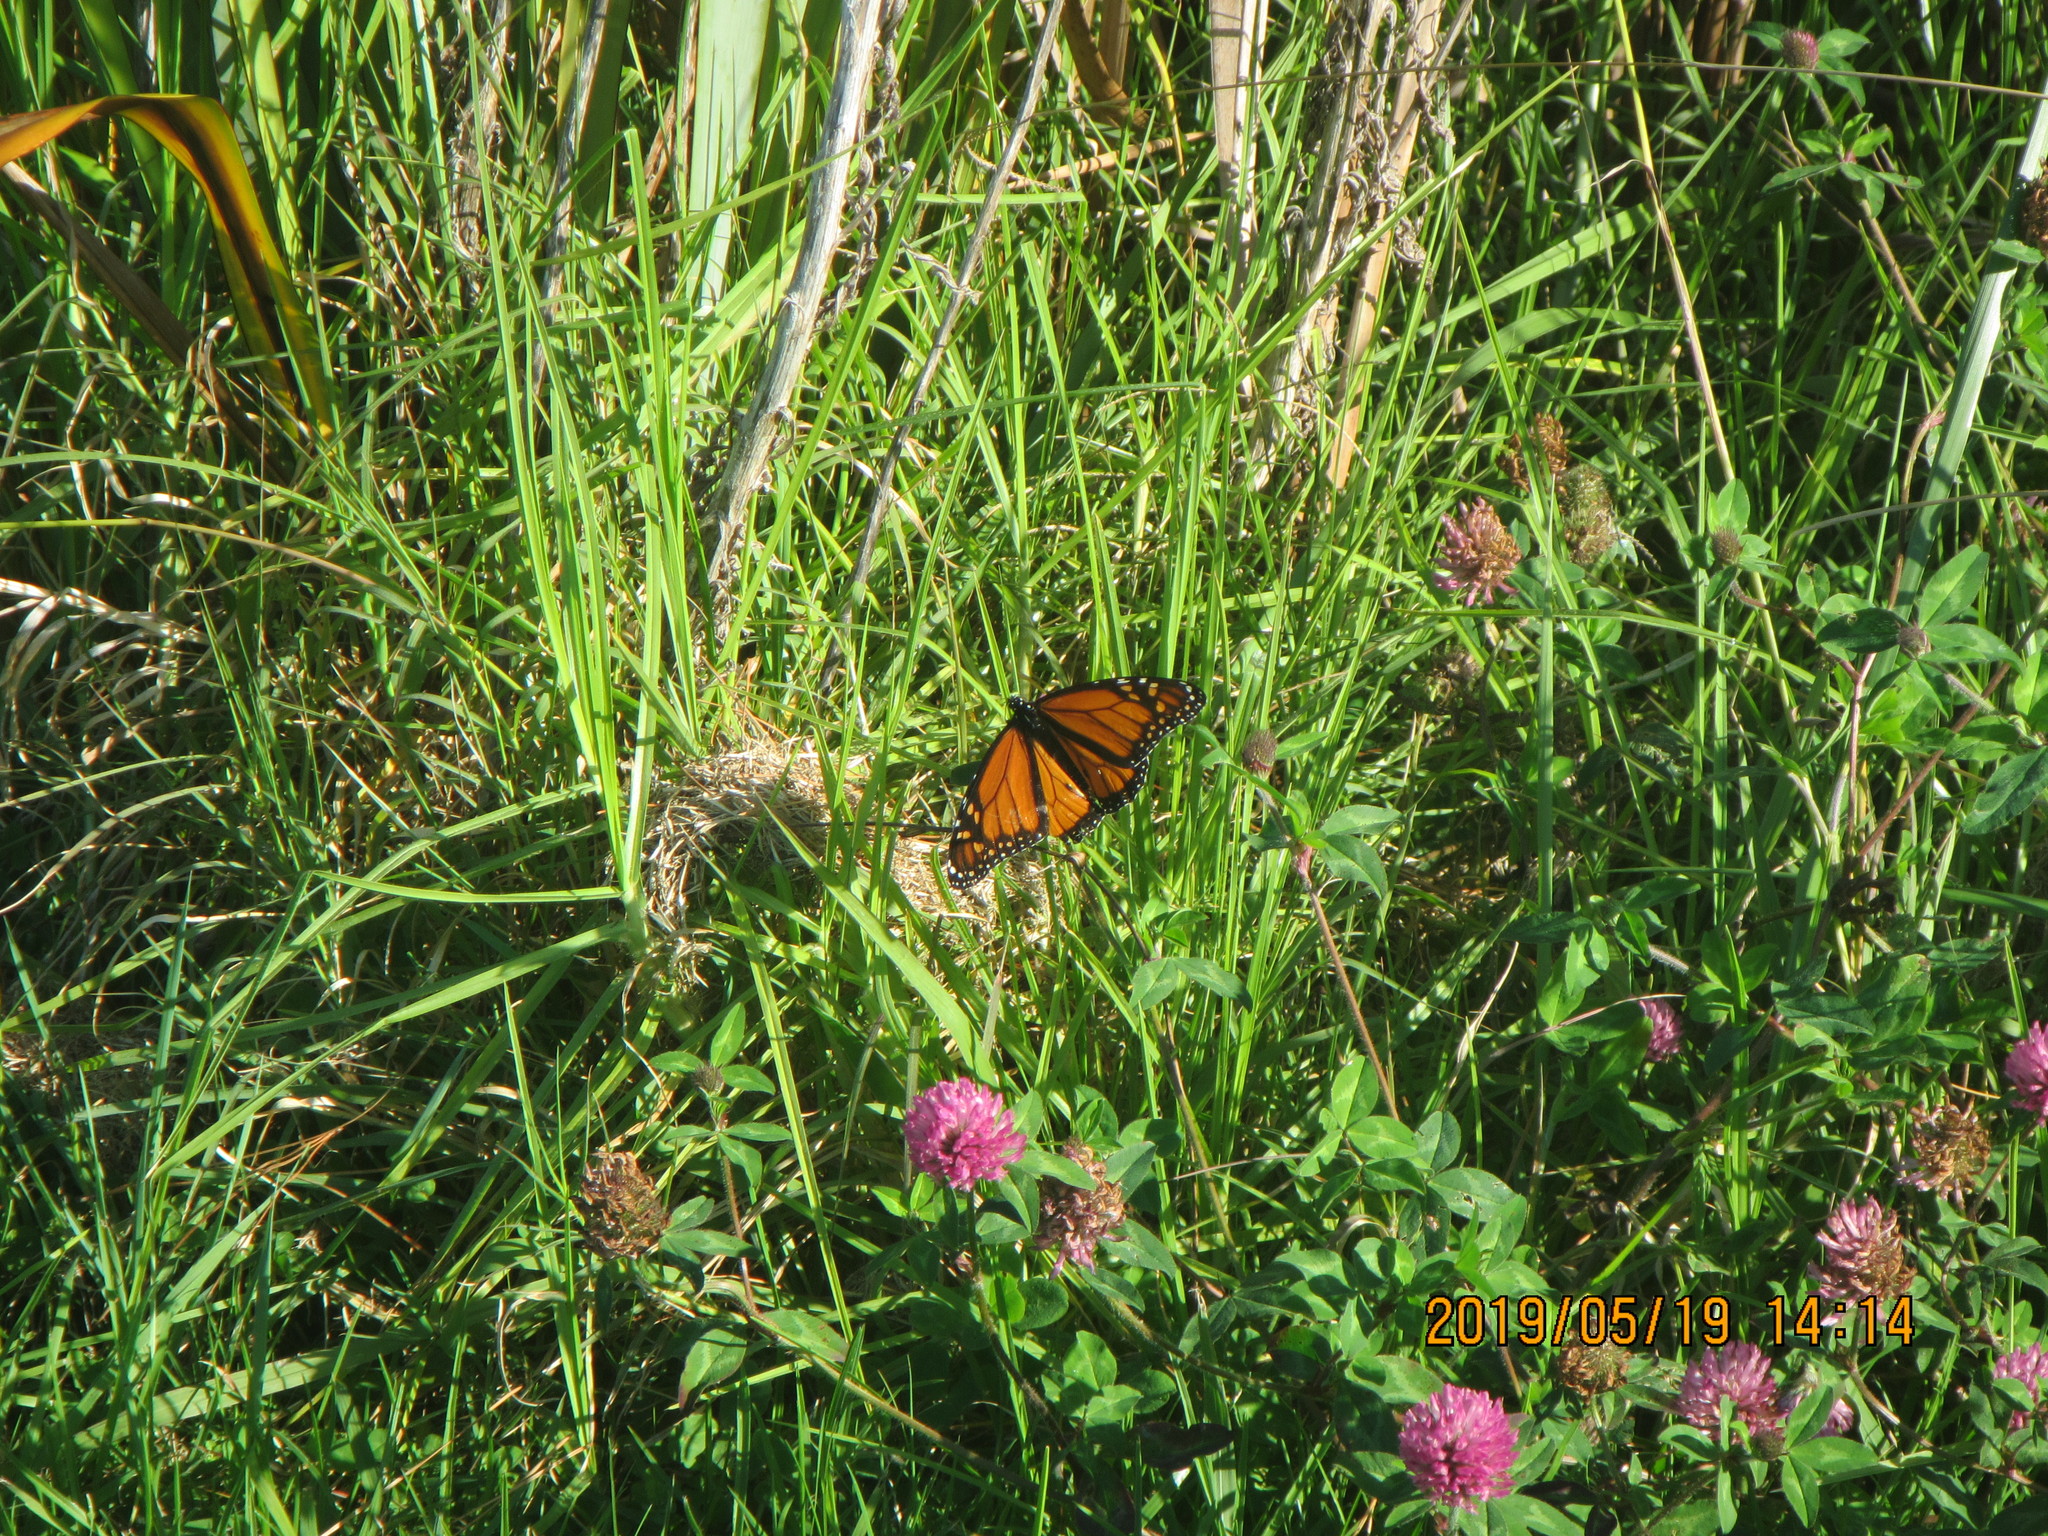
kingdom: Animalia
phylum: Arthropoda
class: Insecta
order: Lepidoptera
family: Nymphalidae
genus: Danaus
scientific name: Danaus plexippus
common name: Monarch
